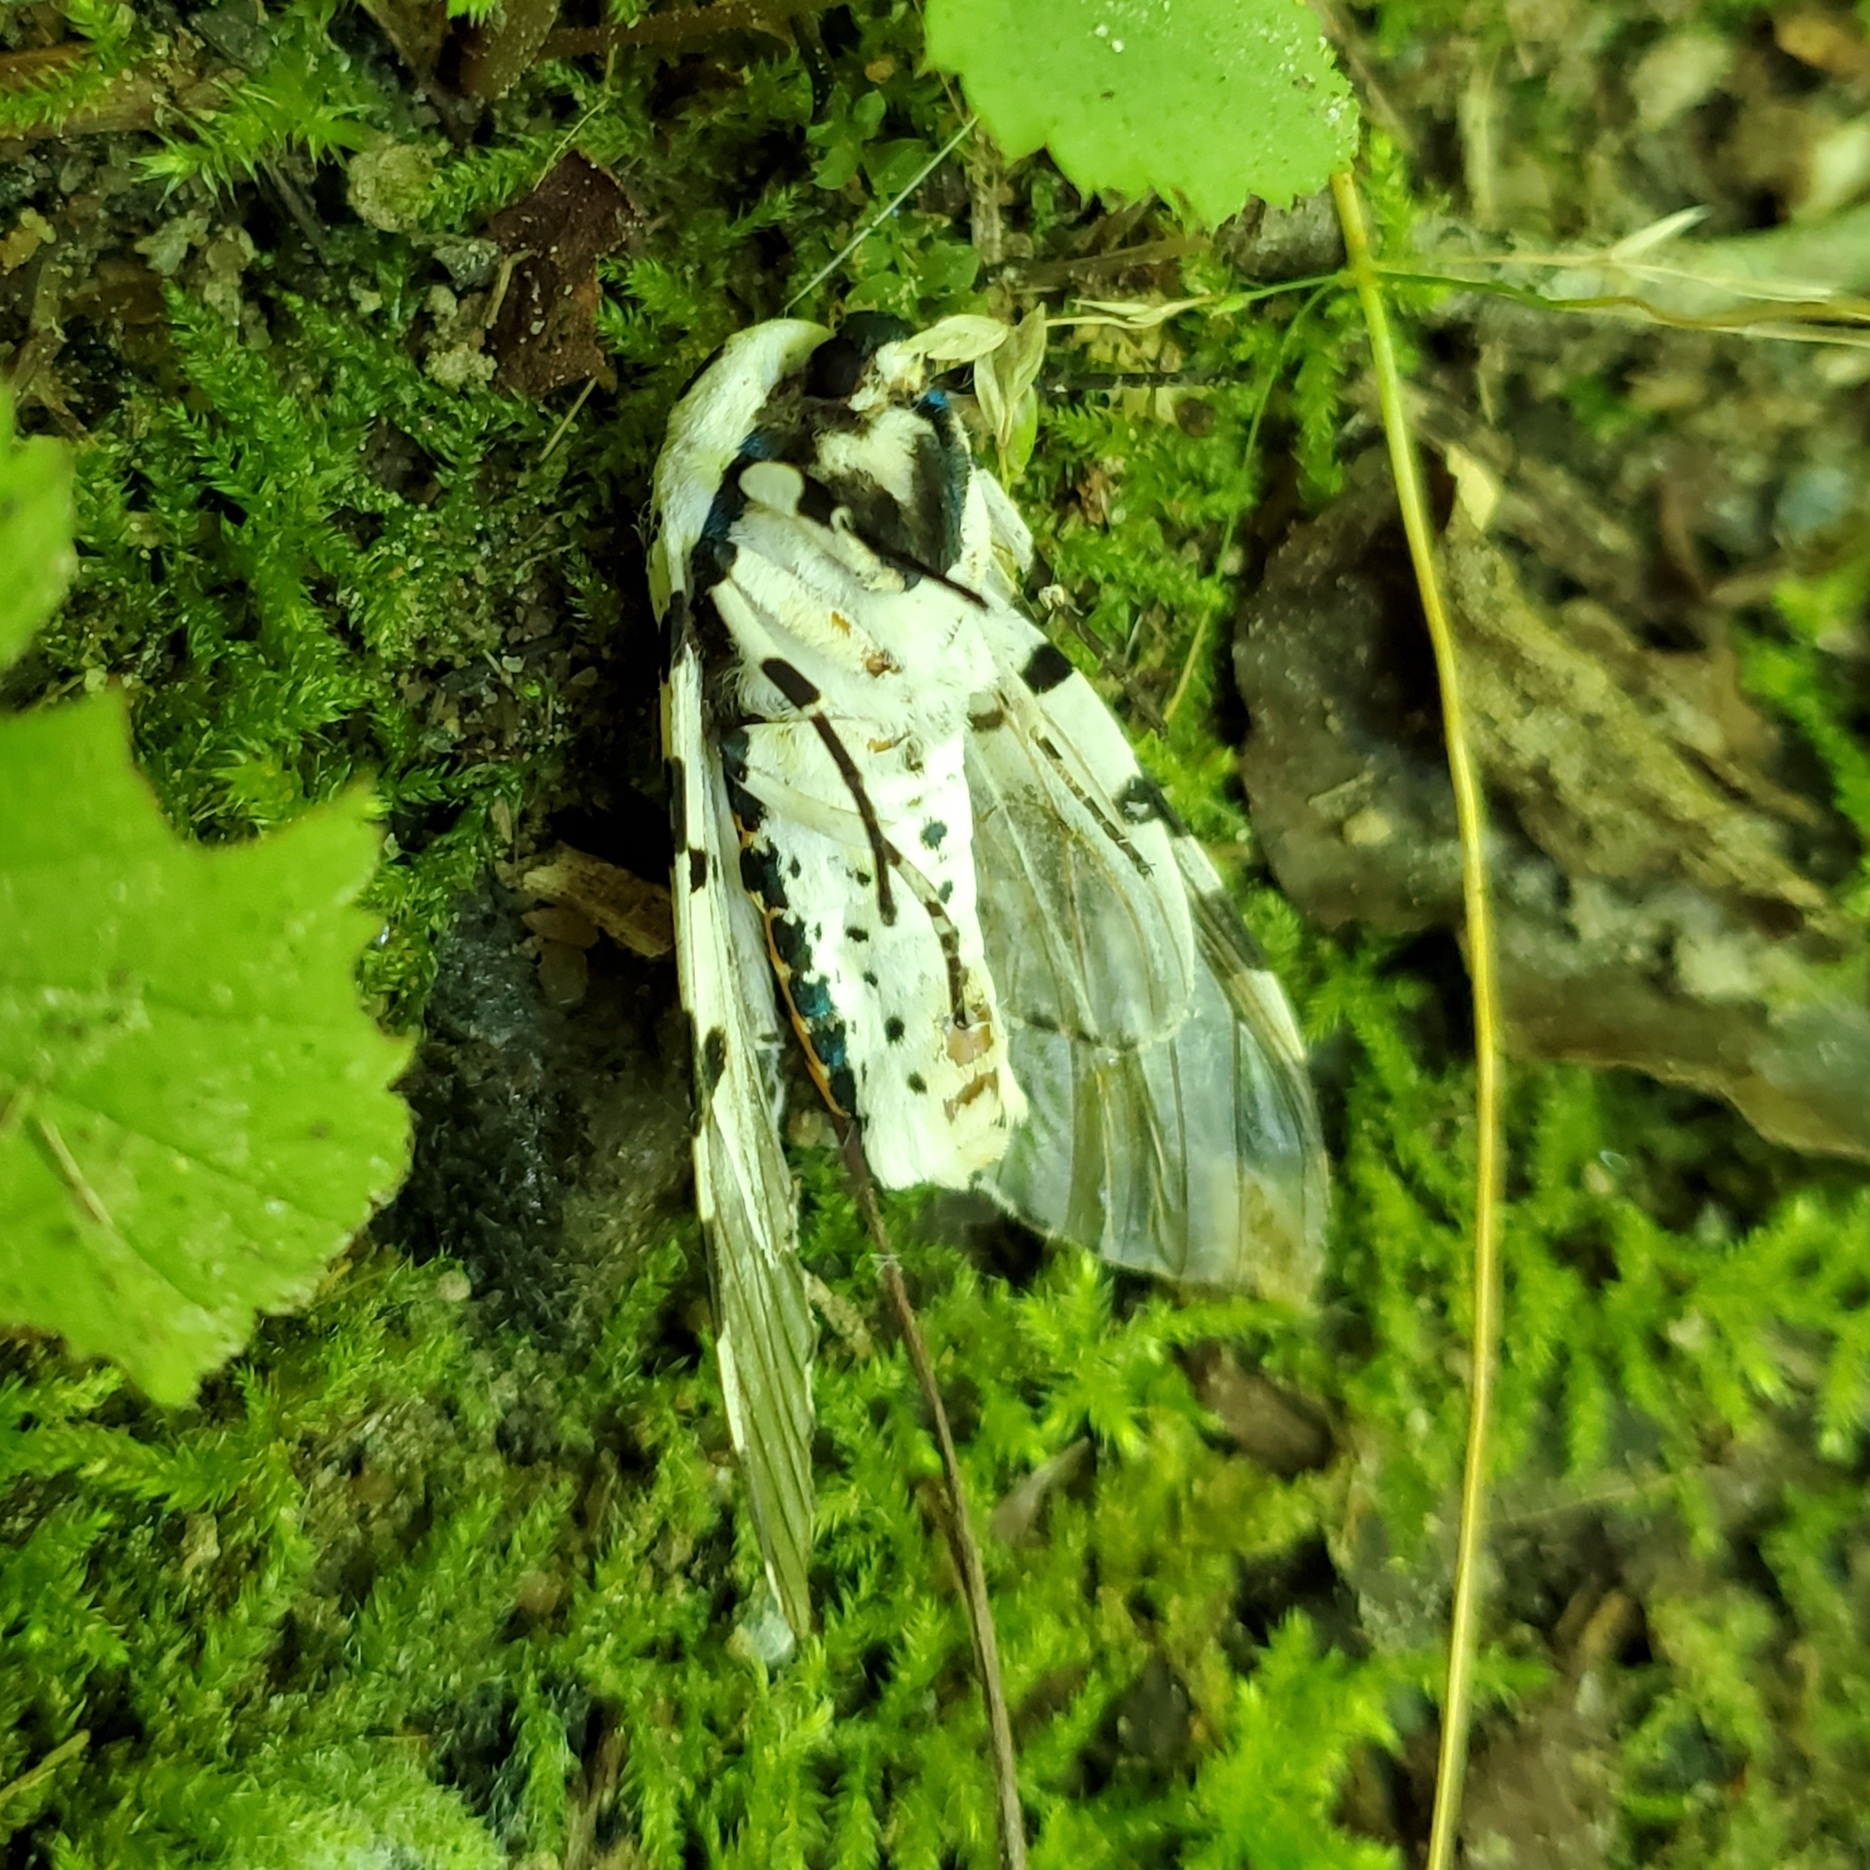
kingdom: Animalia
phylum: Arthropoda
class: Insecta
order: Lepidoptera
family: Erebidae
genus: Hypercompe
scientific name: Hypercompe scribonia
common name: Giant leopard moth
